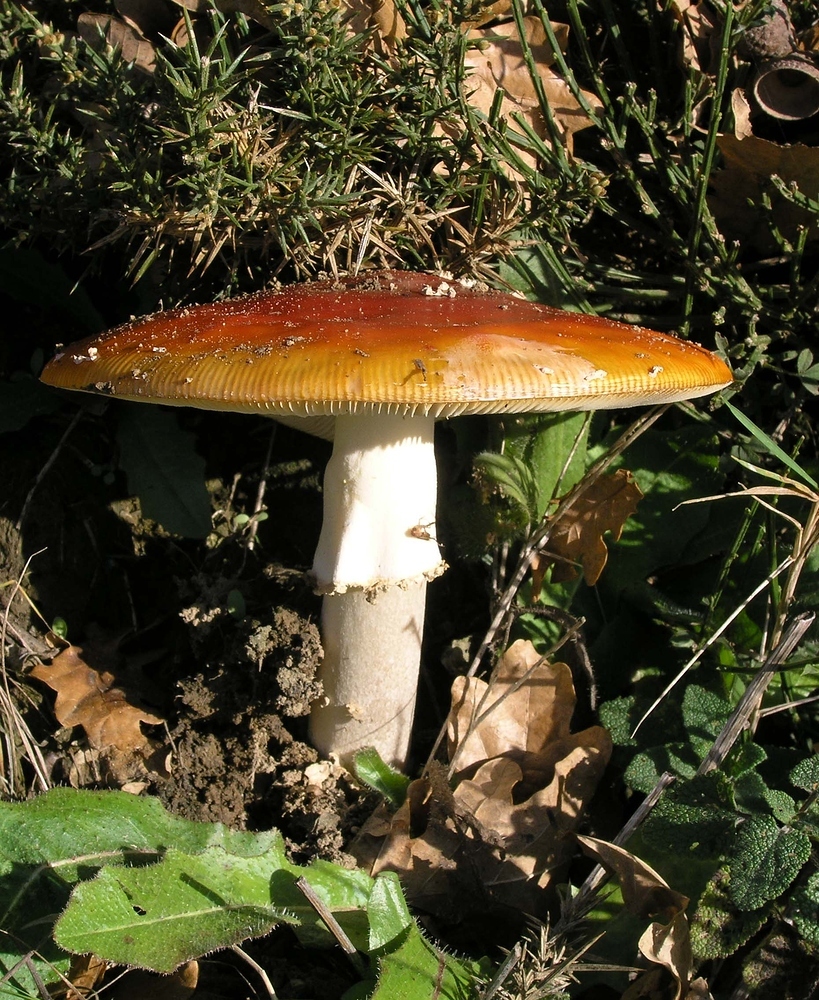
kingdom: Fungi
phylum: Basidiomycota
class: Agaricomycetes
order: Agaricales
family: Amanitaceae
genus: Amanita
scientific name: Amanita muscaria
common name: Fly agaric
